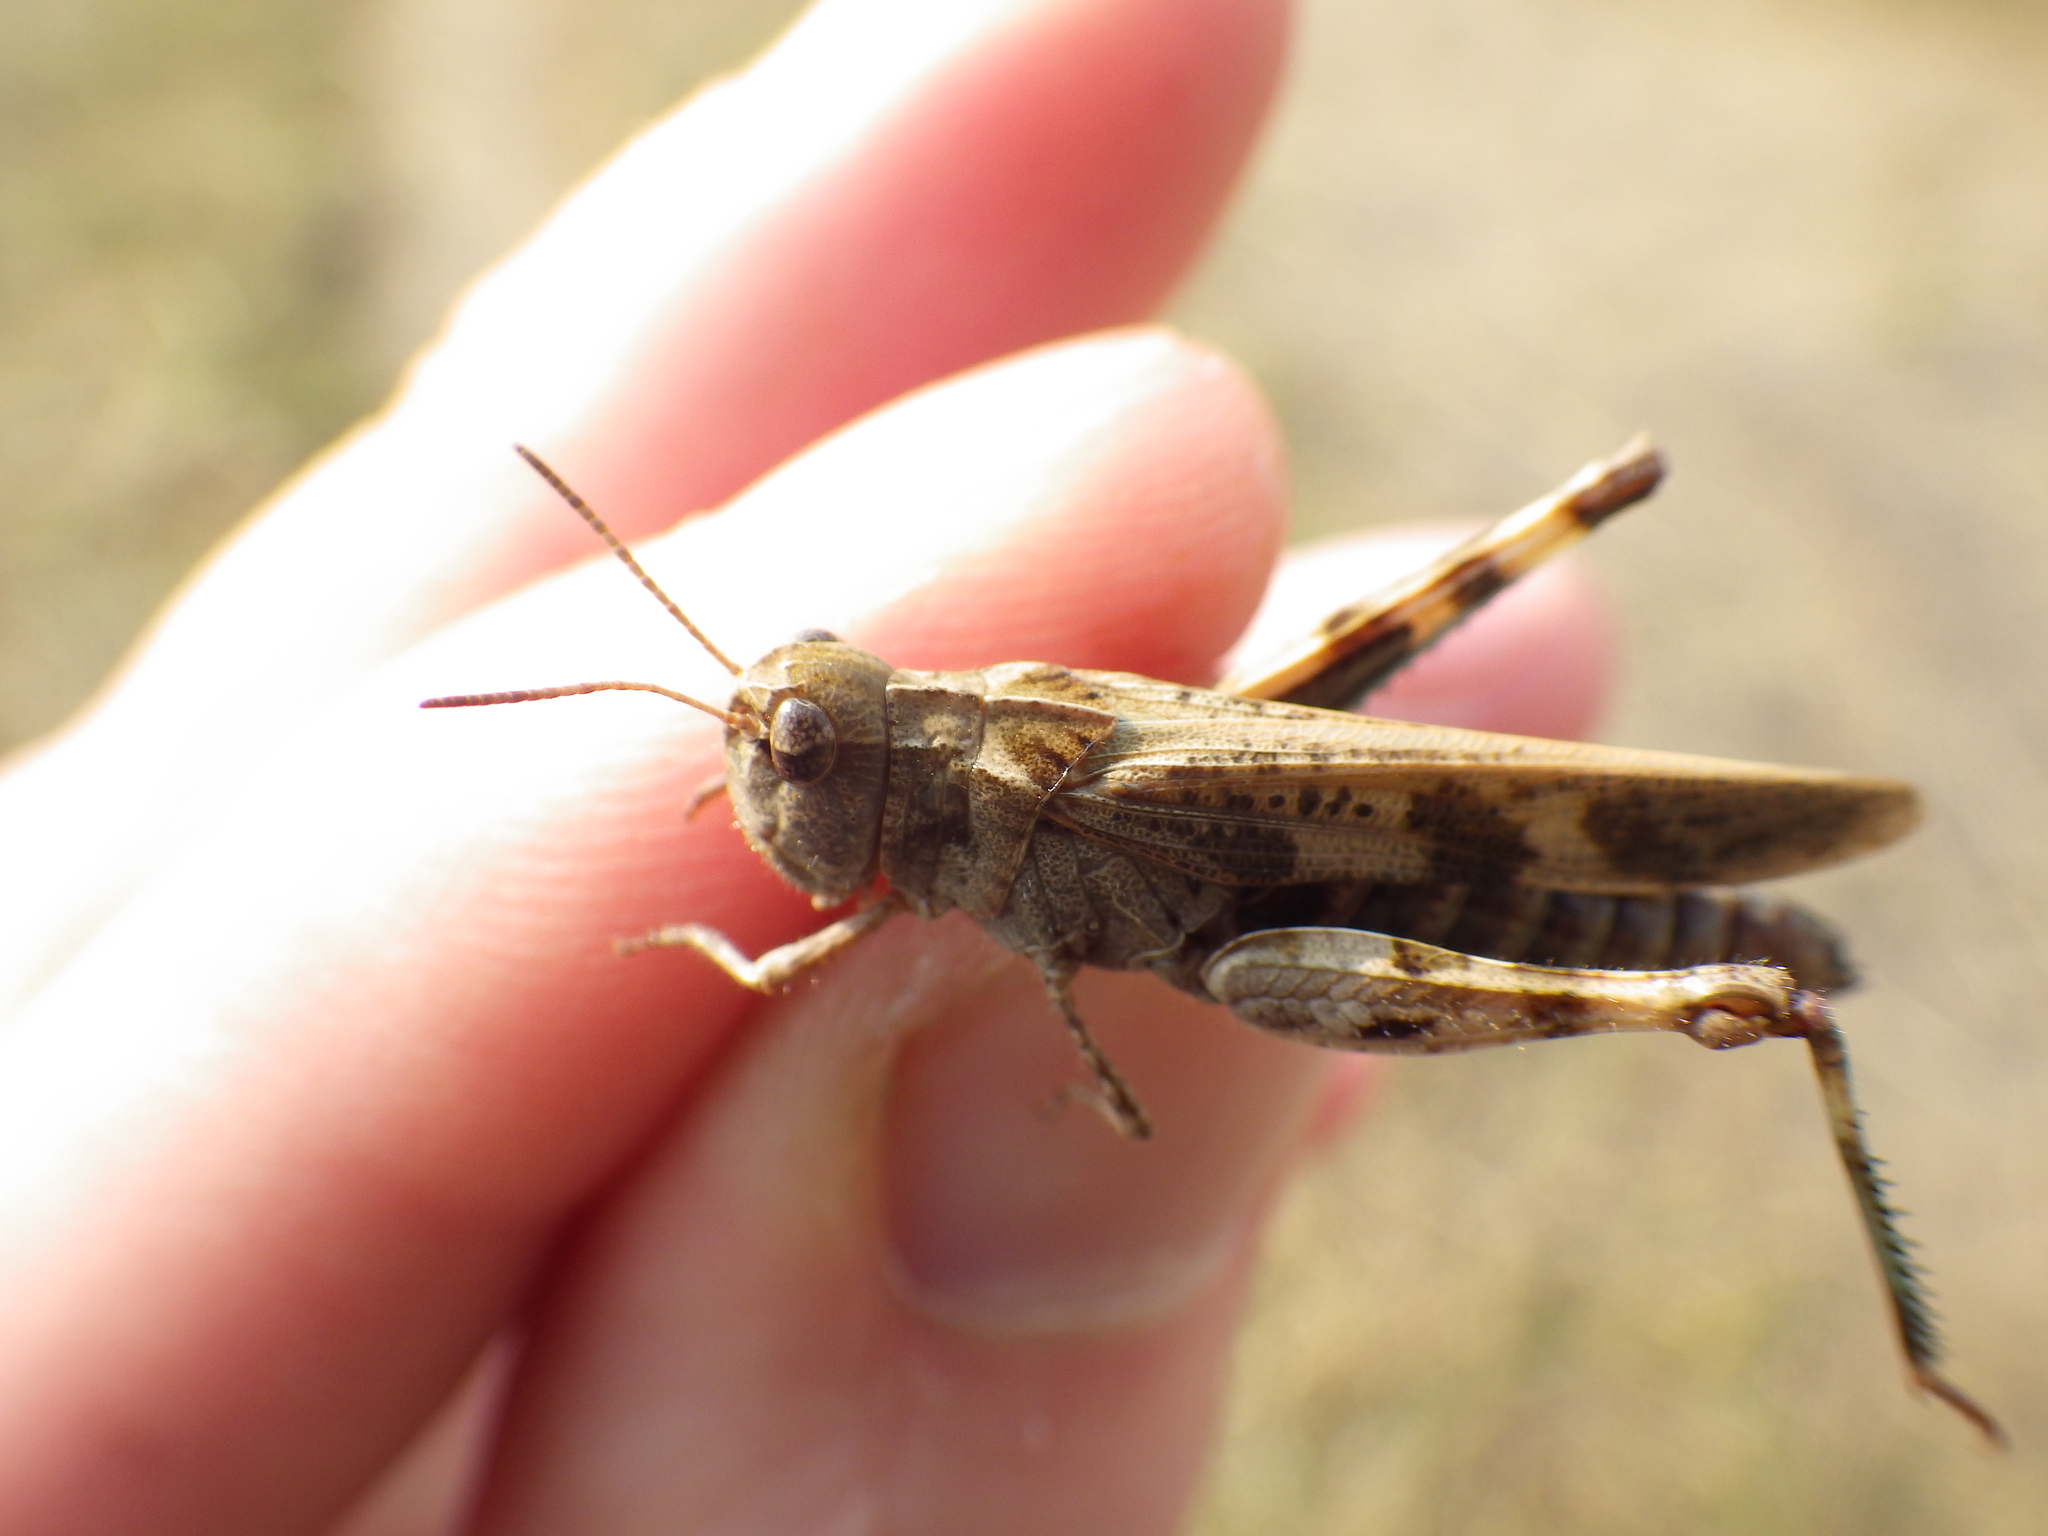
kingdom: Animalia
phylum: Arthropoda
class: Insecta
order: Orthoptera
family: Acrididae
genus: Encoptolophus
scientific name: Encoptolophus costalis
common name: Dusky grasshopper
